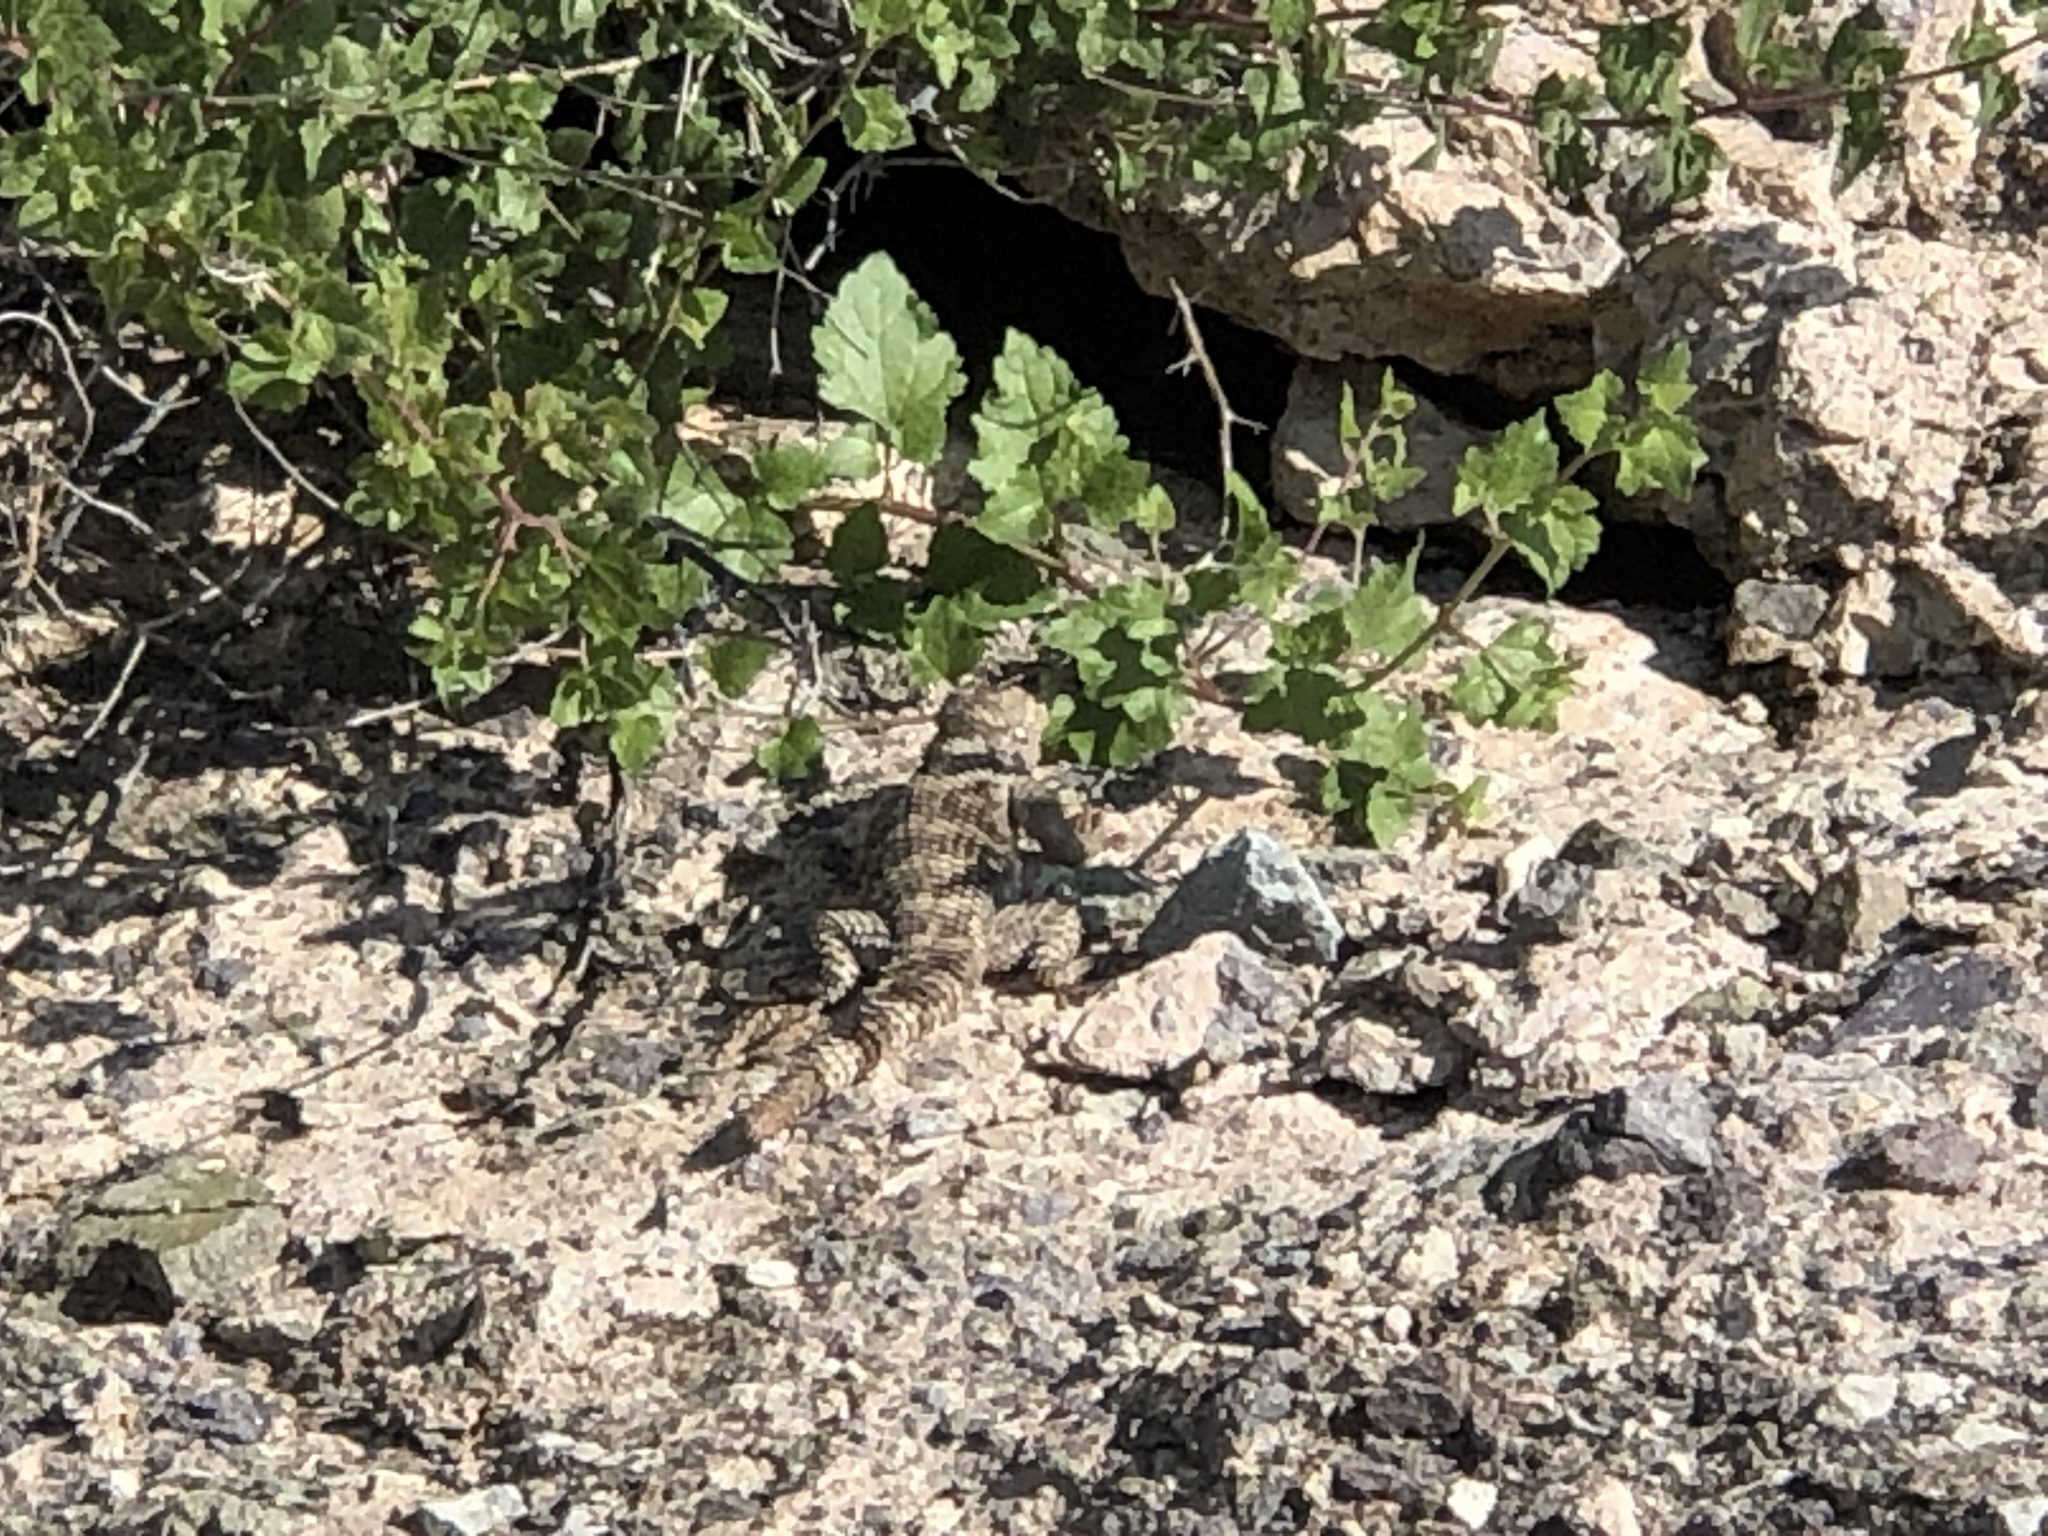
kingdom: Animalia
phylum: Chordata
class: Squamata
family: Phrynosomatidae
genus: Sceloporus
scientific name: Sceloporus poinsettii
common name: Crevice spiny lizard
